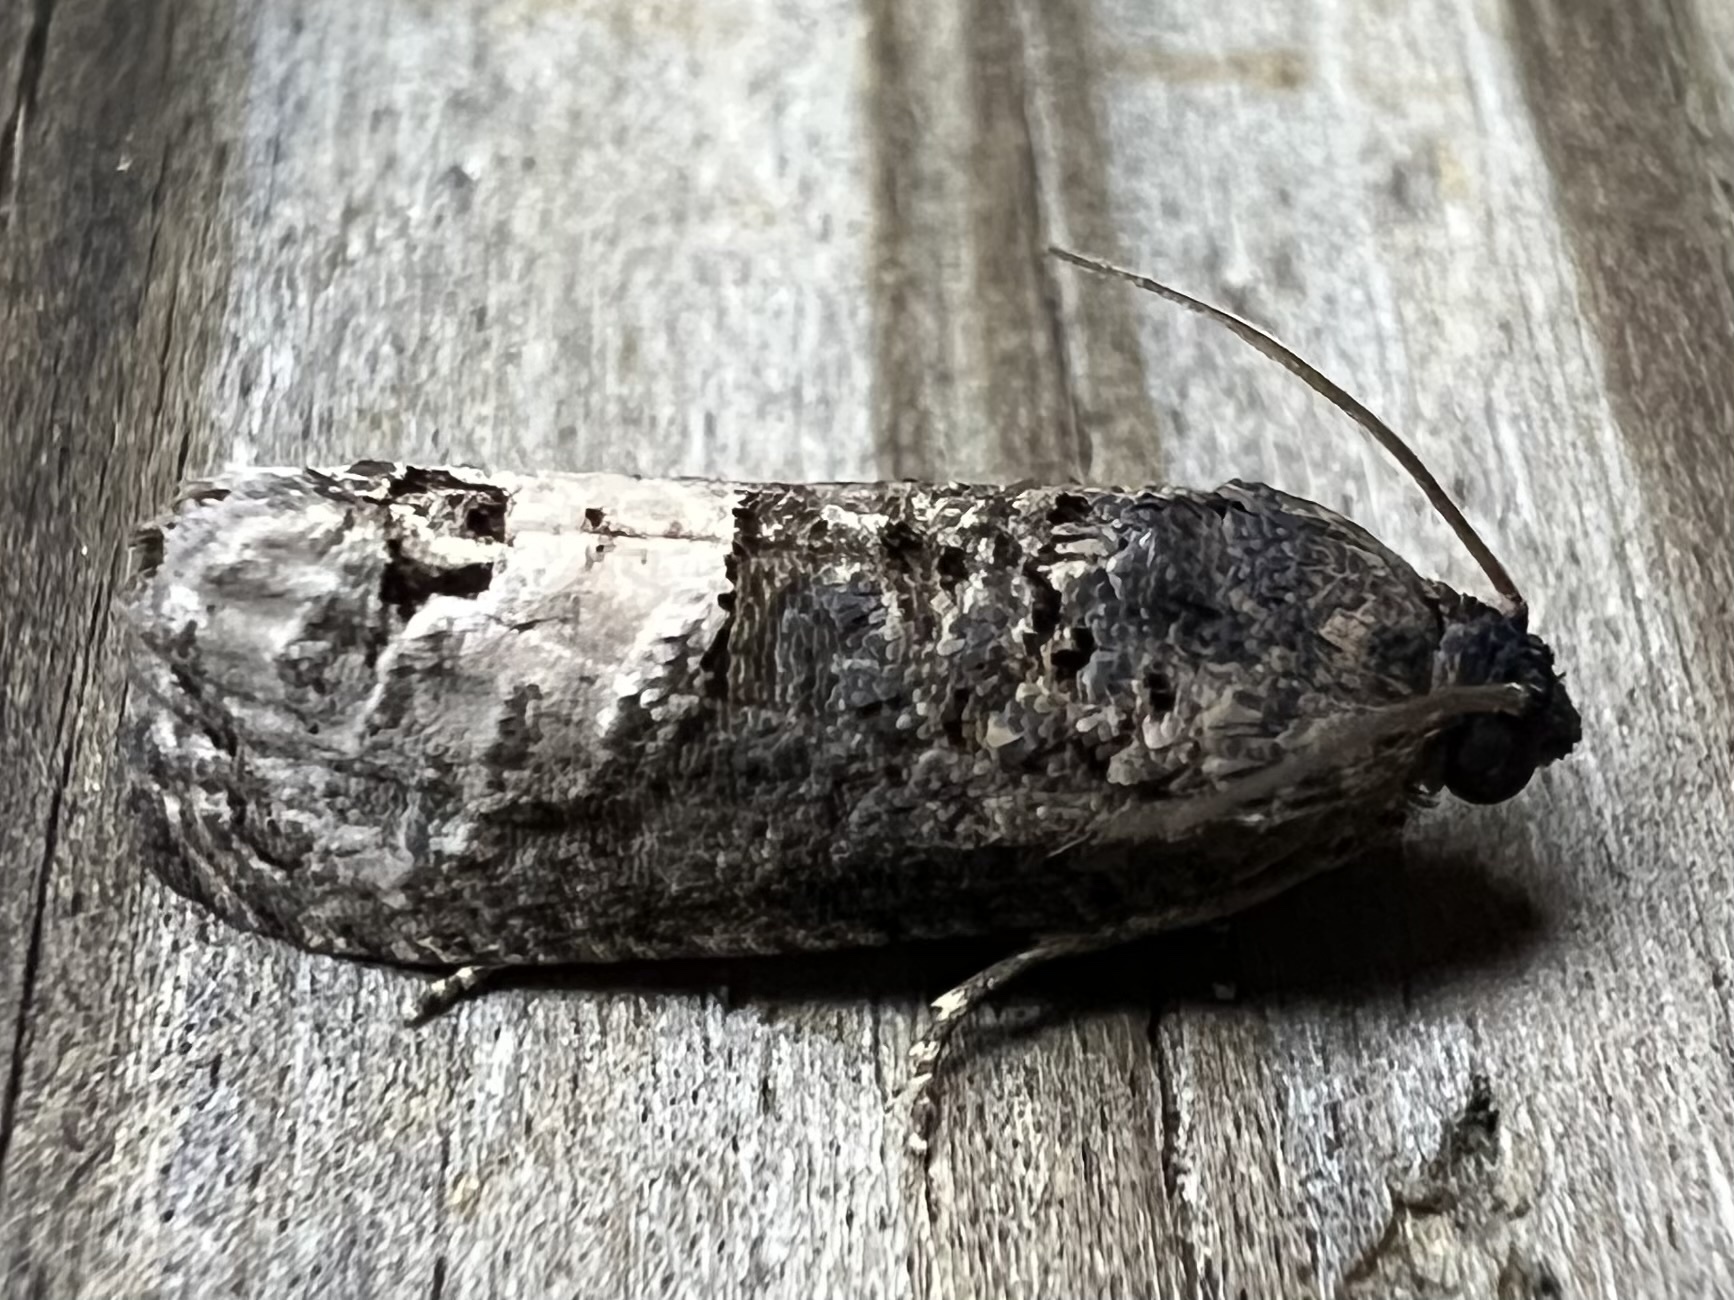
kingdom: Animalia
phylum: Arthropoda
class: Insecta
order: Lepidoptera
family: Tortricidae
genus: Ecdytolopha
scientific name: Ecdytolopha insiticiana
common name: Locust twig borer moth
